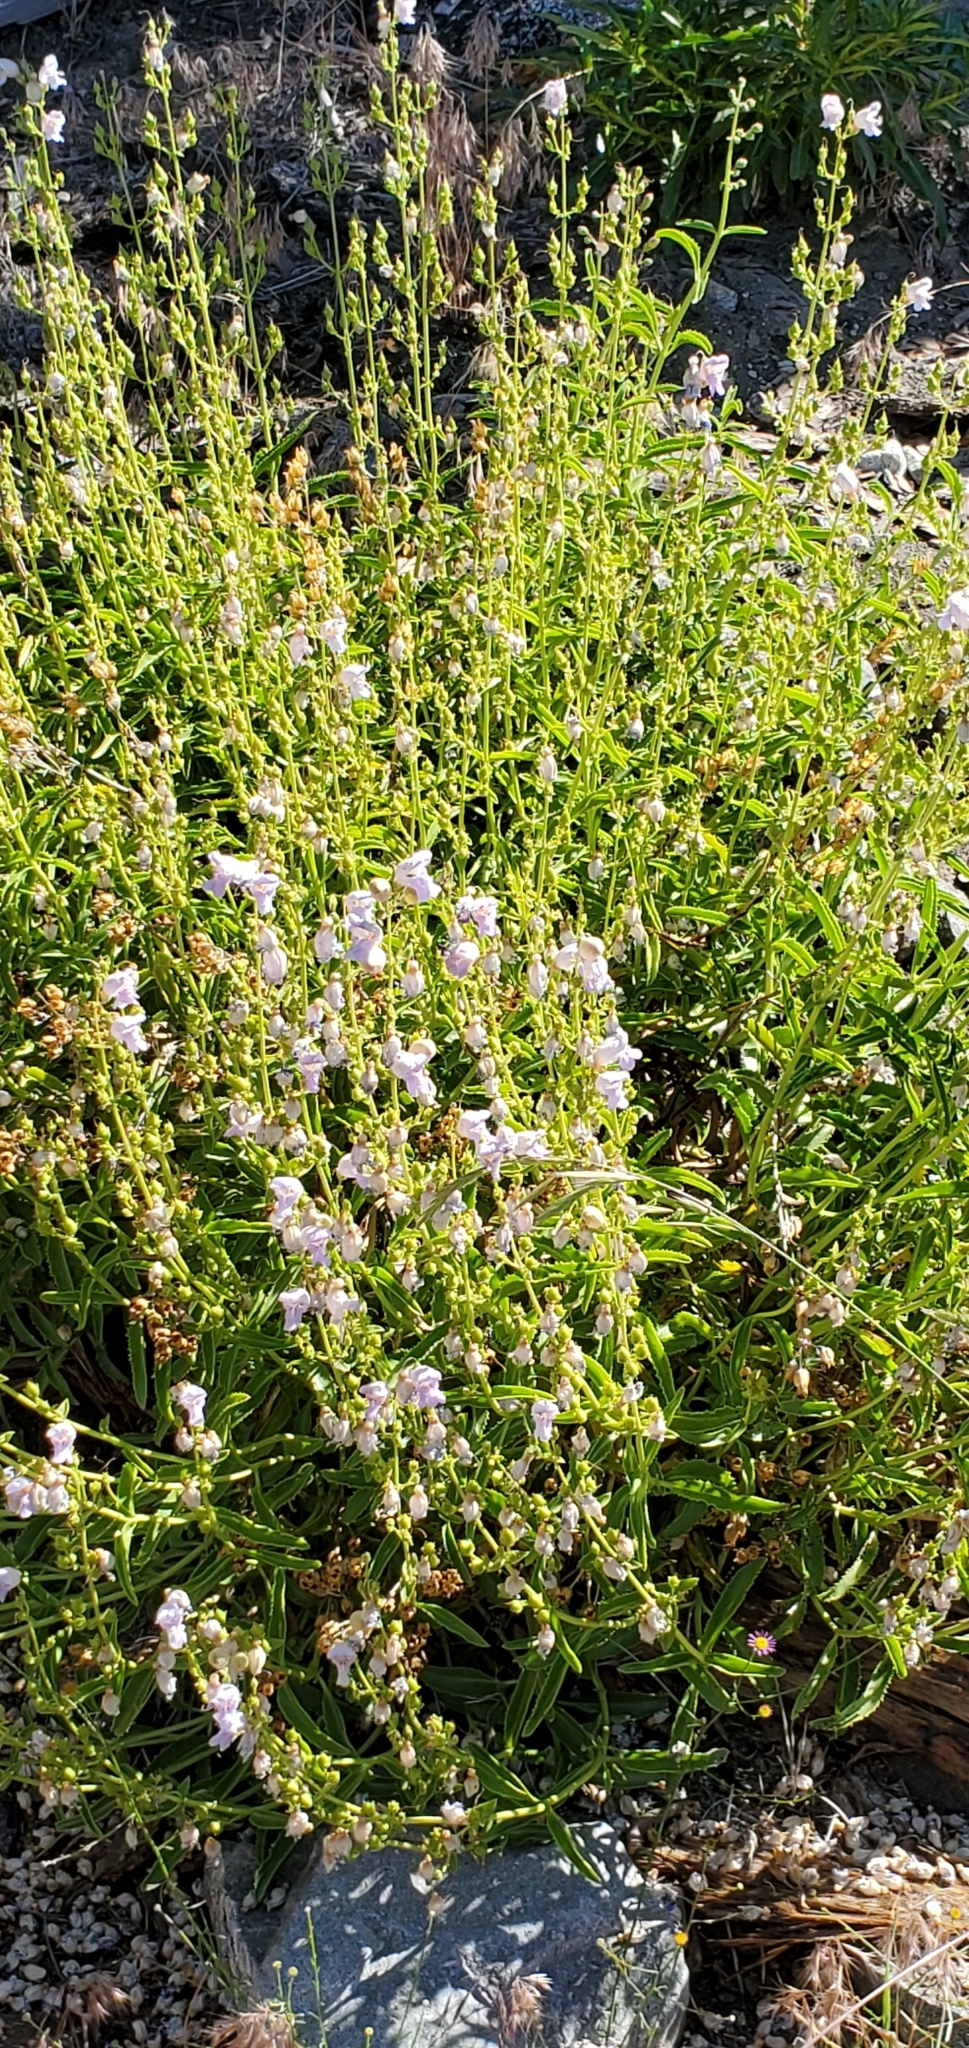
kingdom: Plantae
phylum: Tracheophyta
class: Magnoliopsida
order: Lamiales
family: Plantaginaceae
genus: Penstemon
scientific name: Penstemon grinnellii
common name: Grinnell's beardtongue
